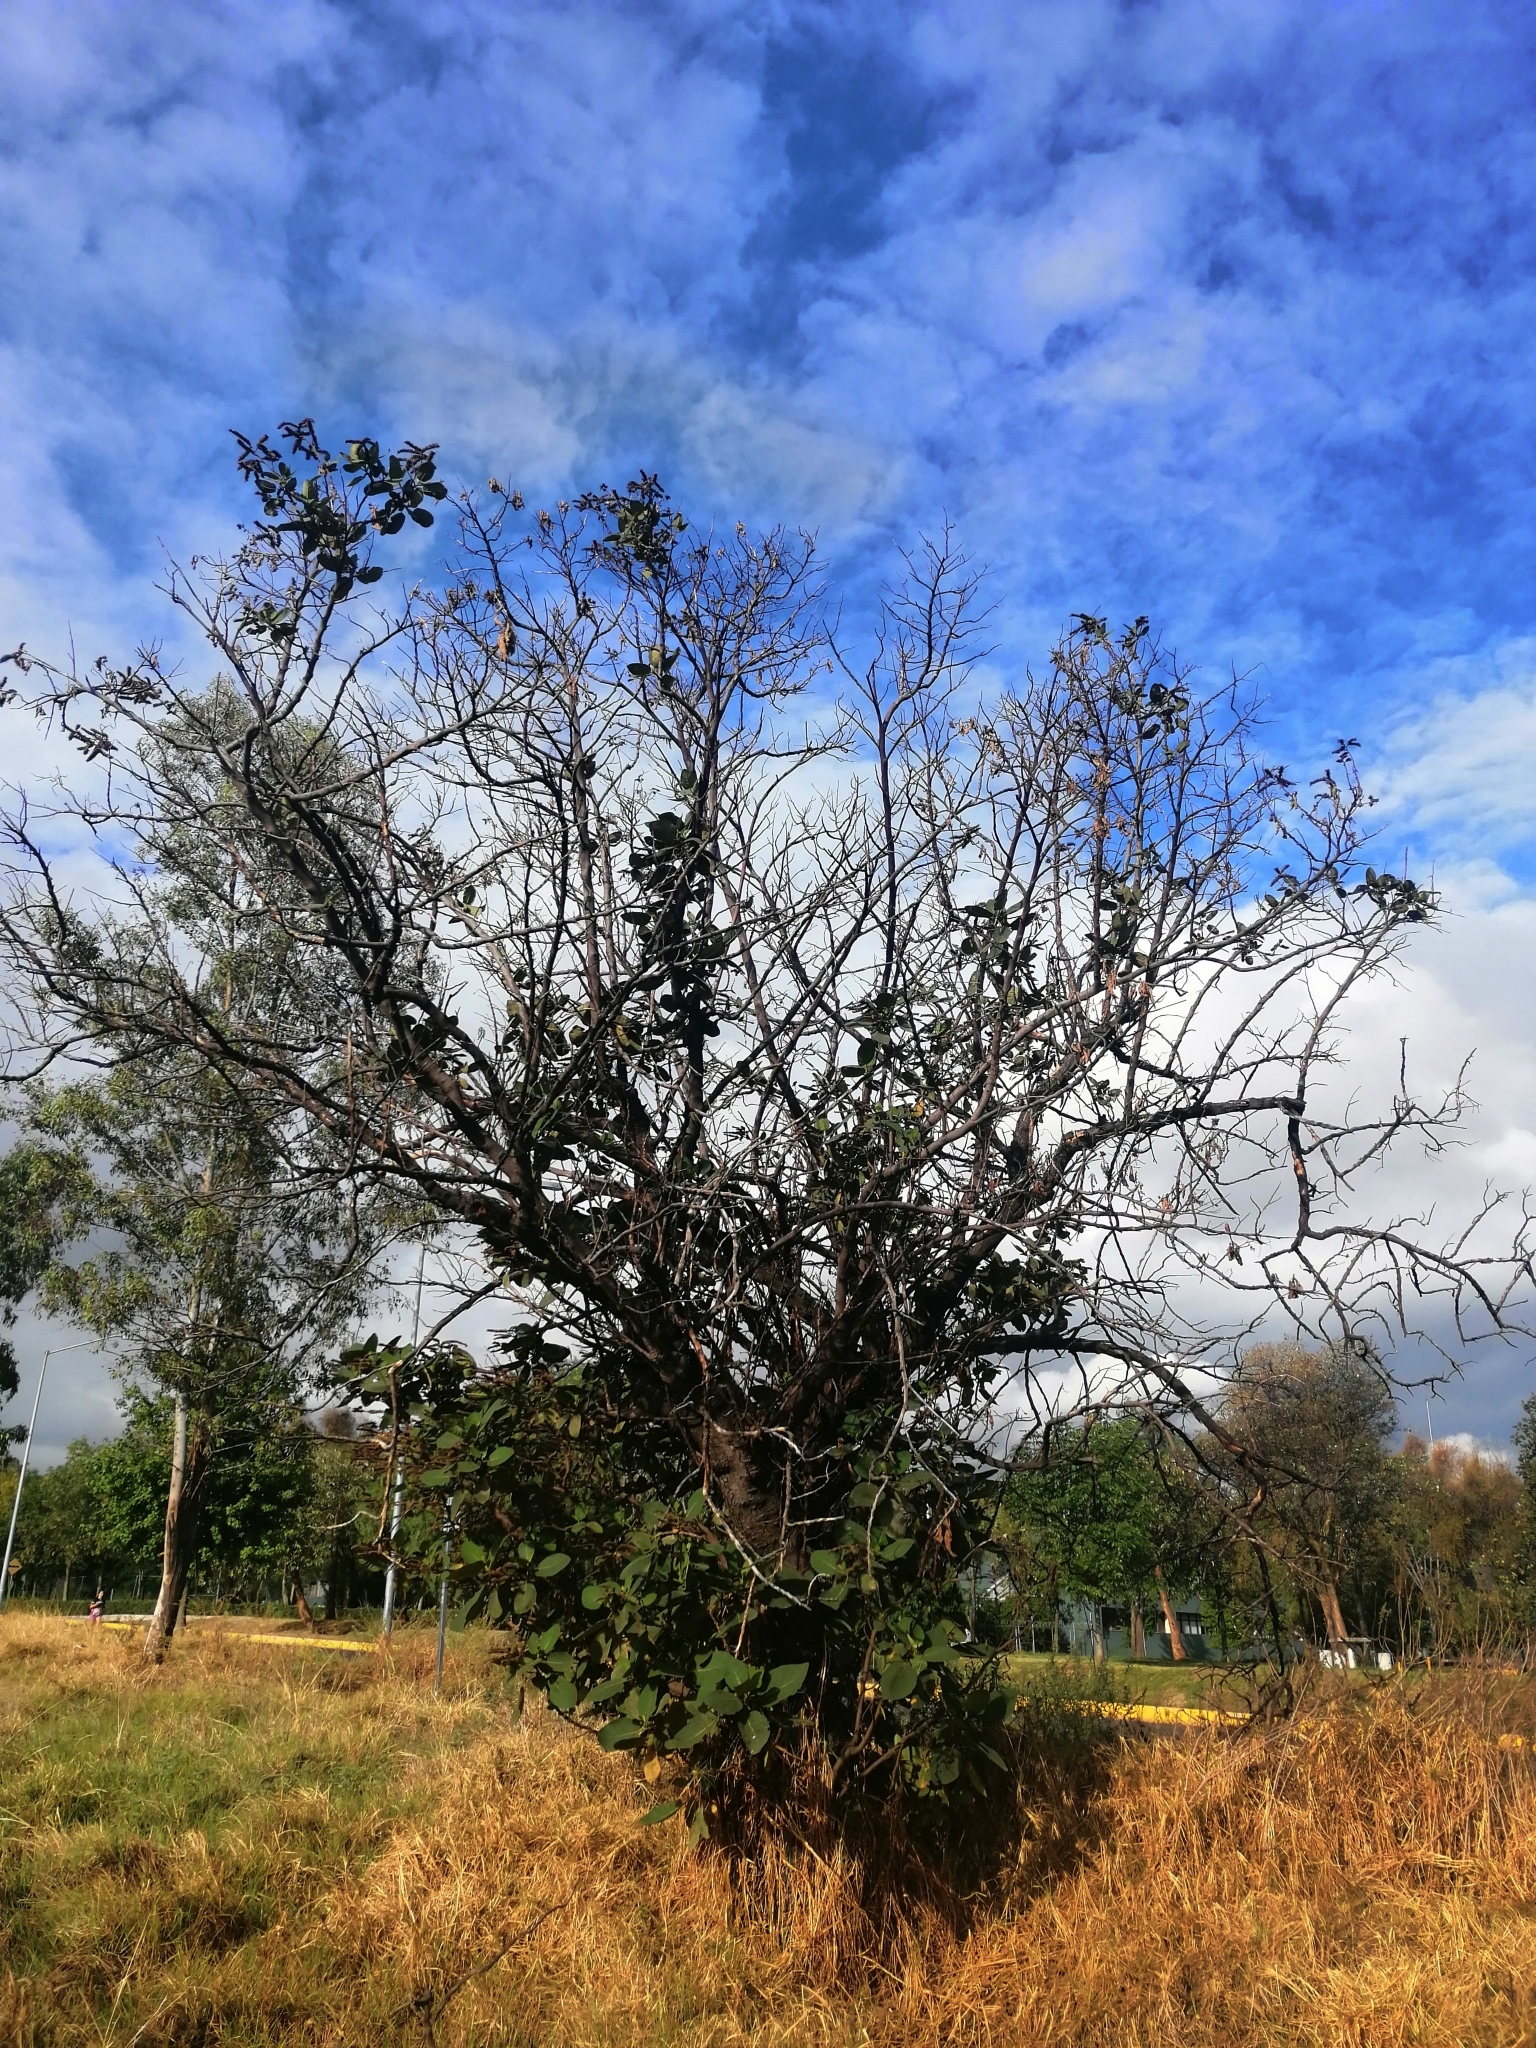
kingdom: Plantae
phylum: Tracheophyta
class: Magnoliopsida
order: Boraginales
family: Namaceae
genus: Wigandia
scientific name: Wigandia urens
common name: Caracus wigandia
